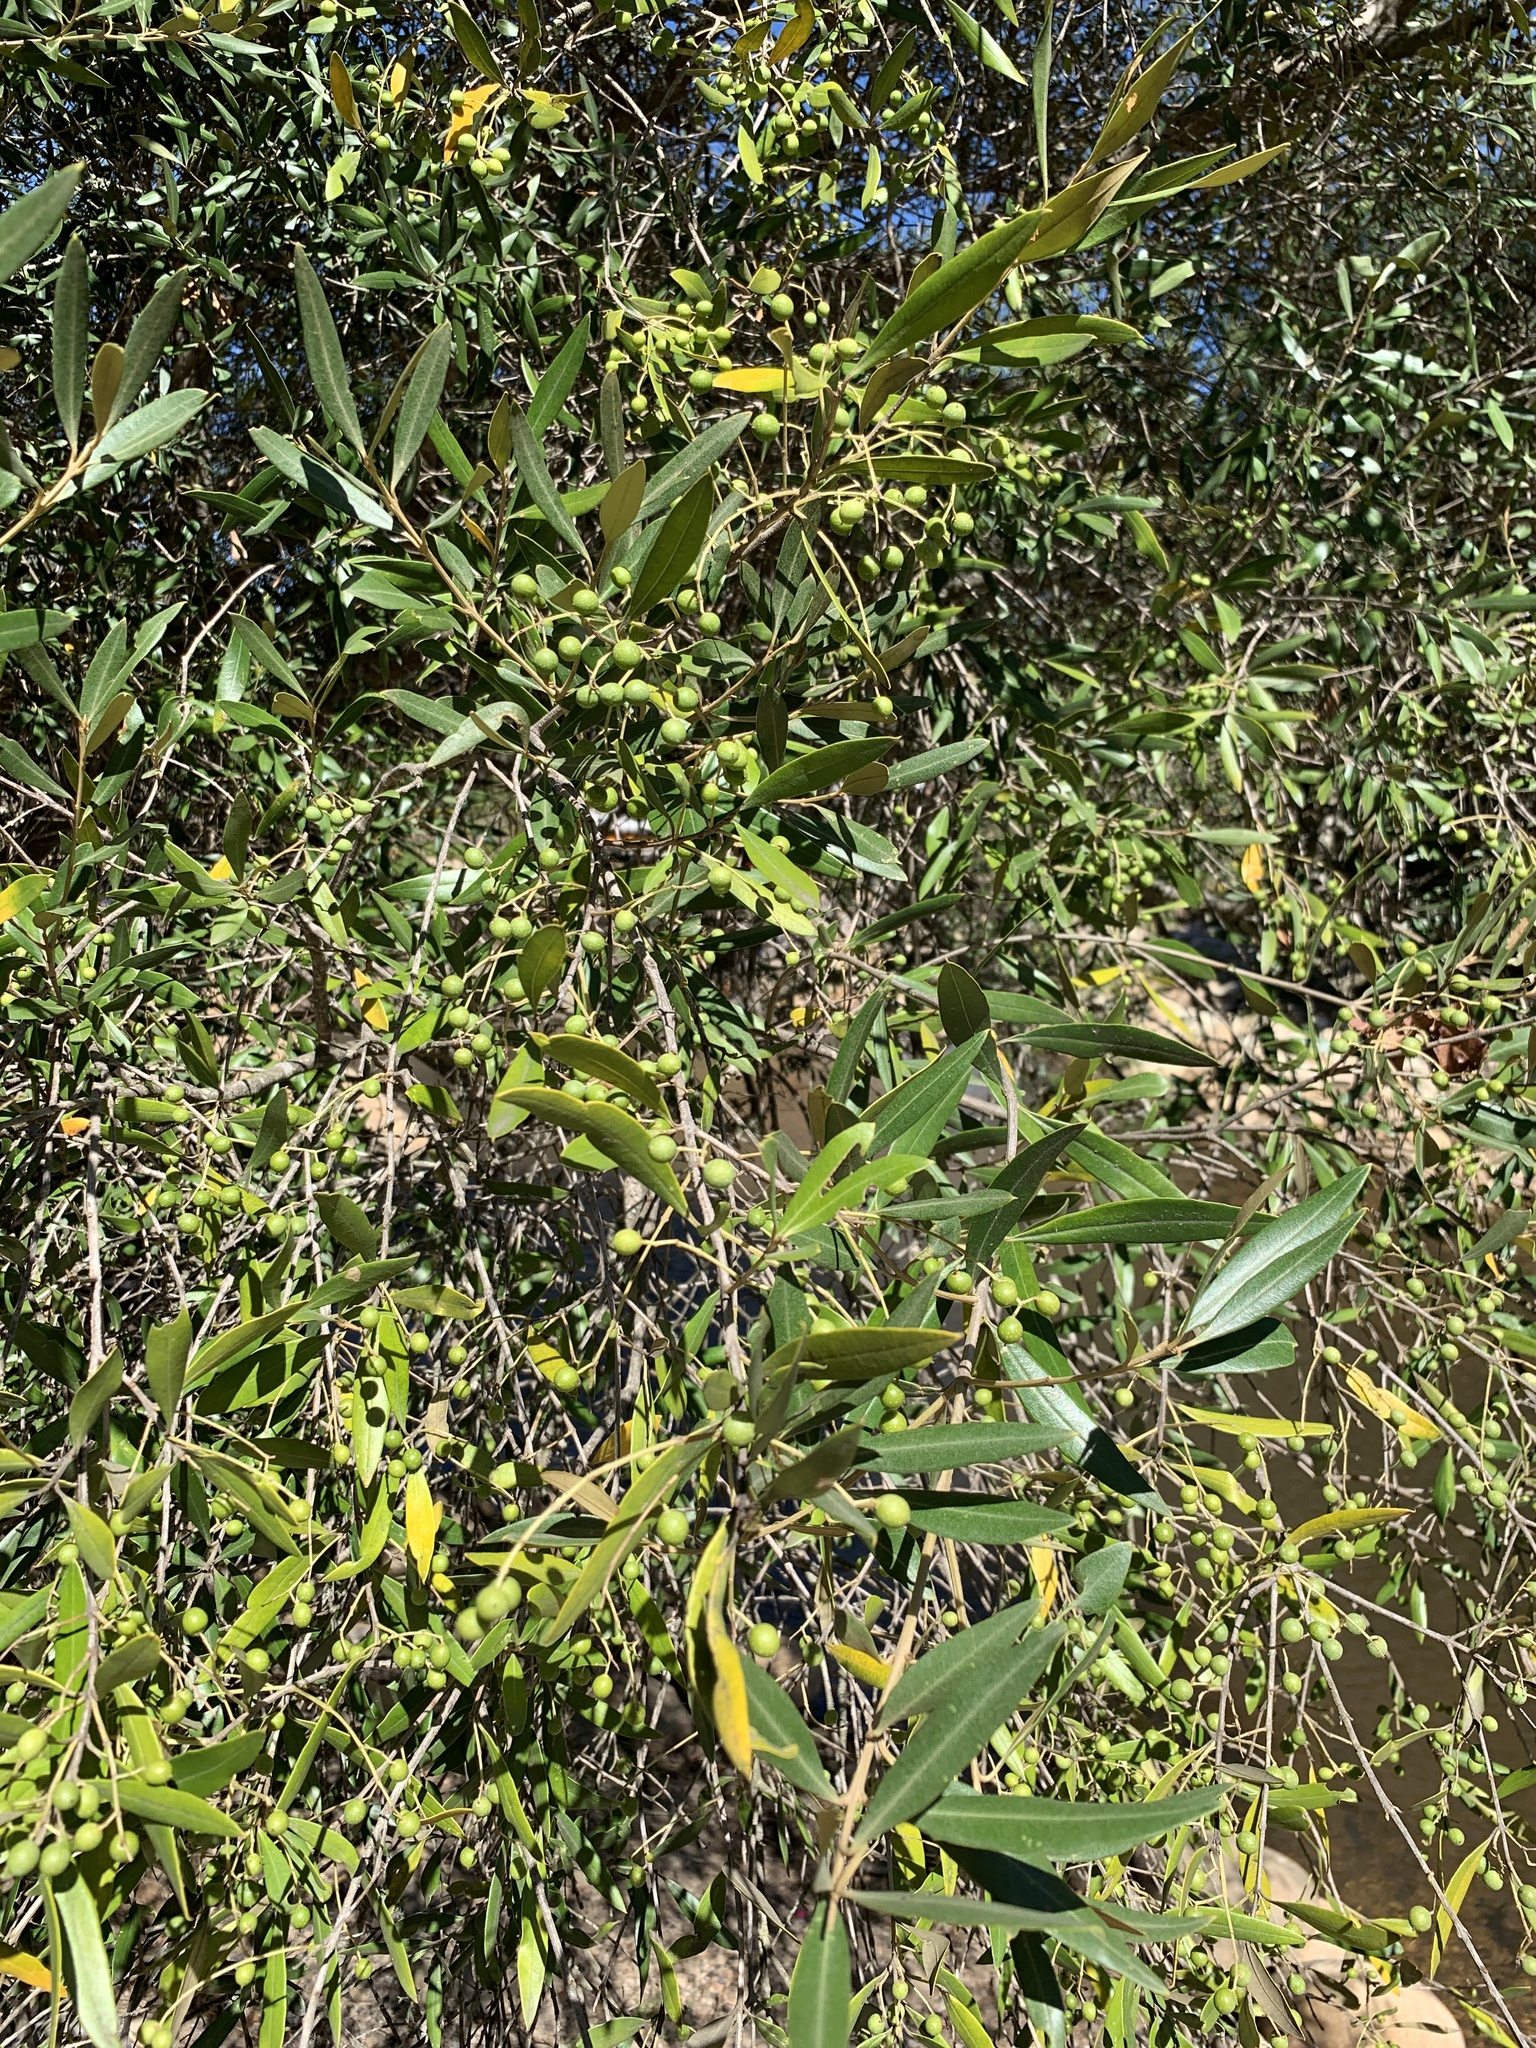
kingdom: Plantae
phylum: Tracheophyta
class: Magnoliopsida
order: Lamiales
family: Oleaceae
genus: Olea
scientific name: Olea europaea
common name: Olive
